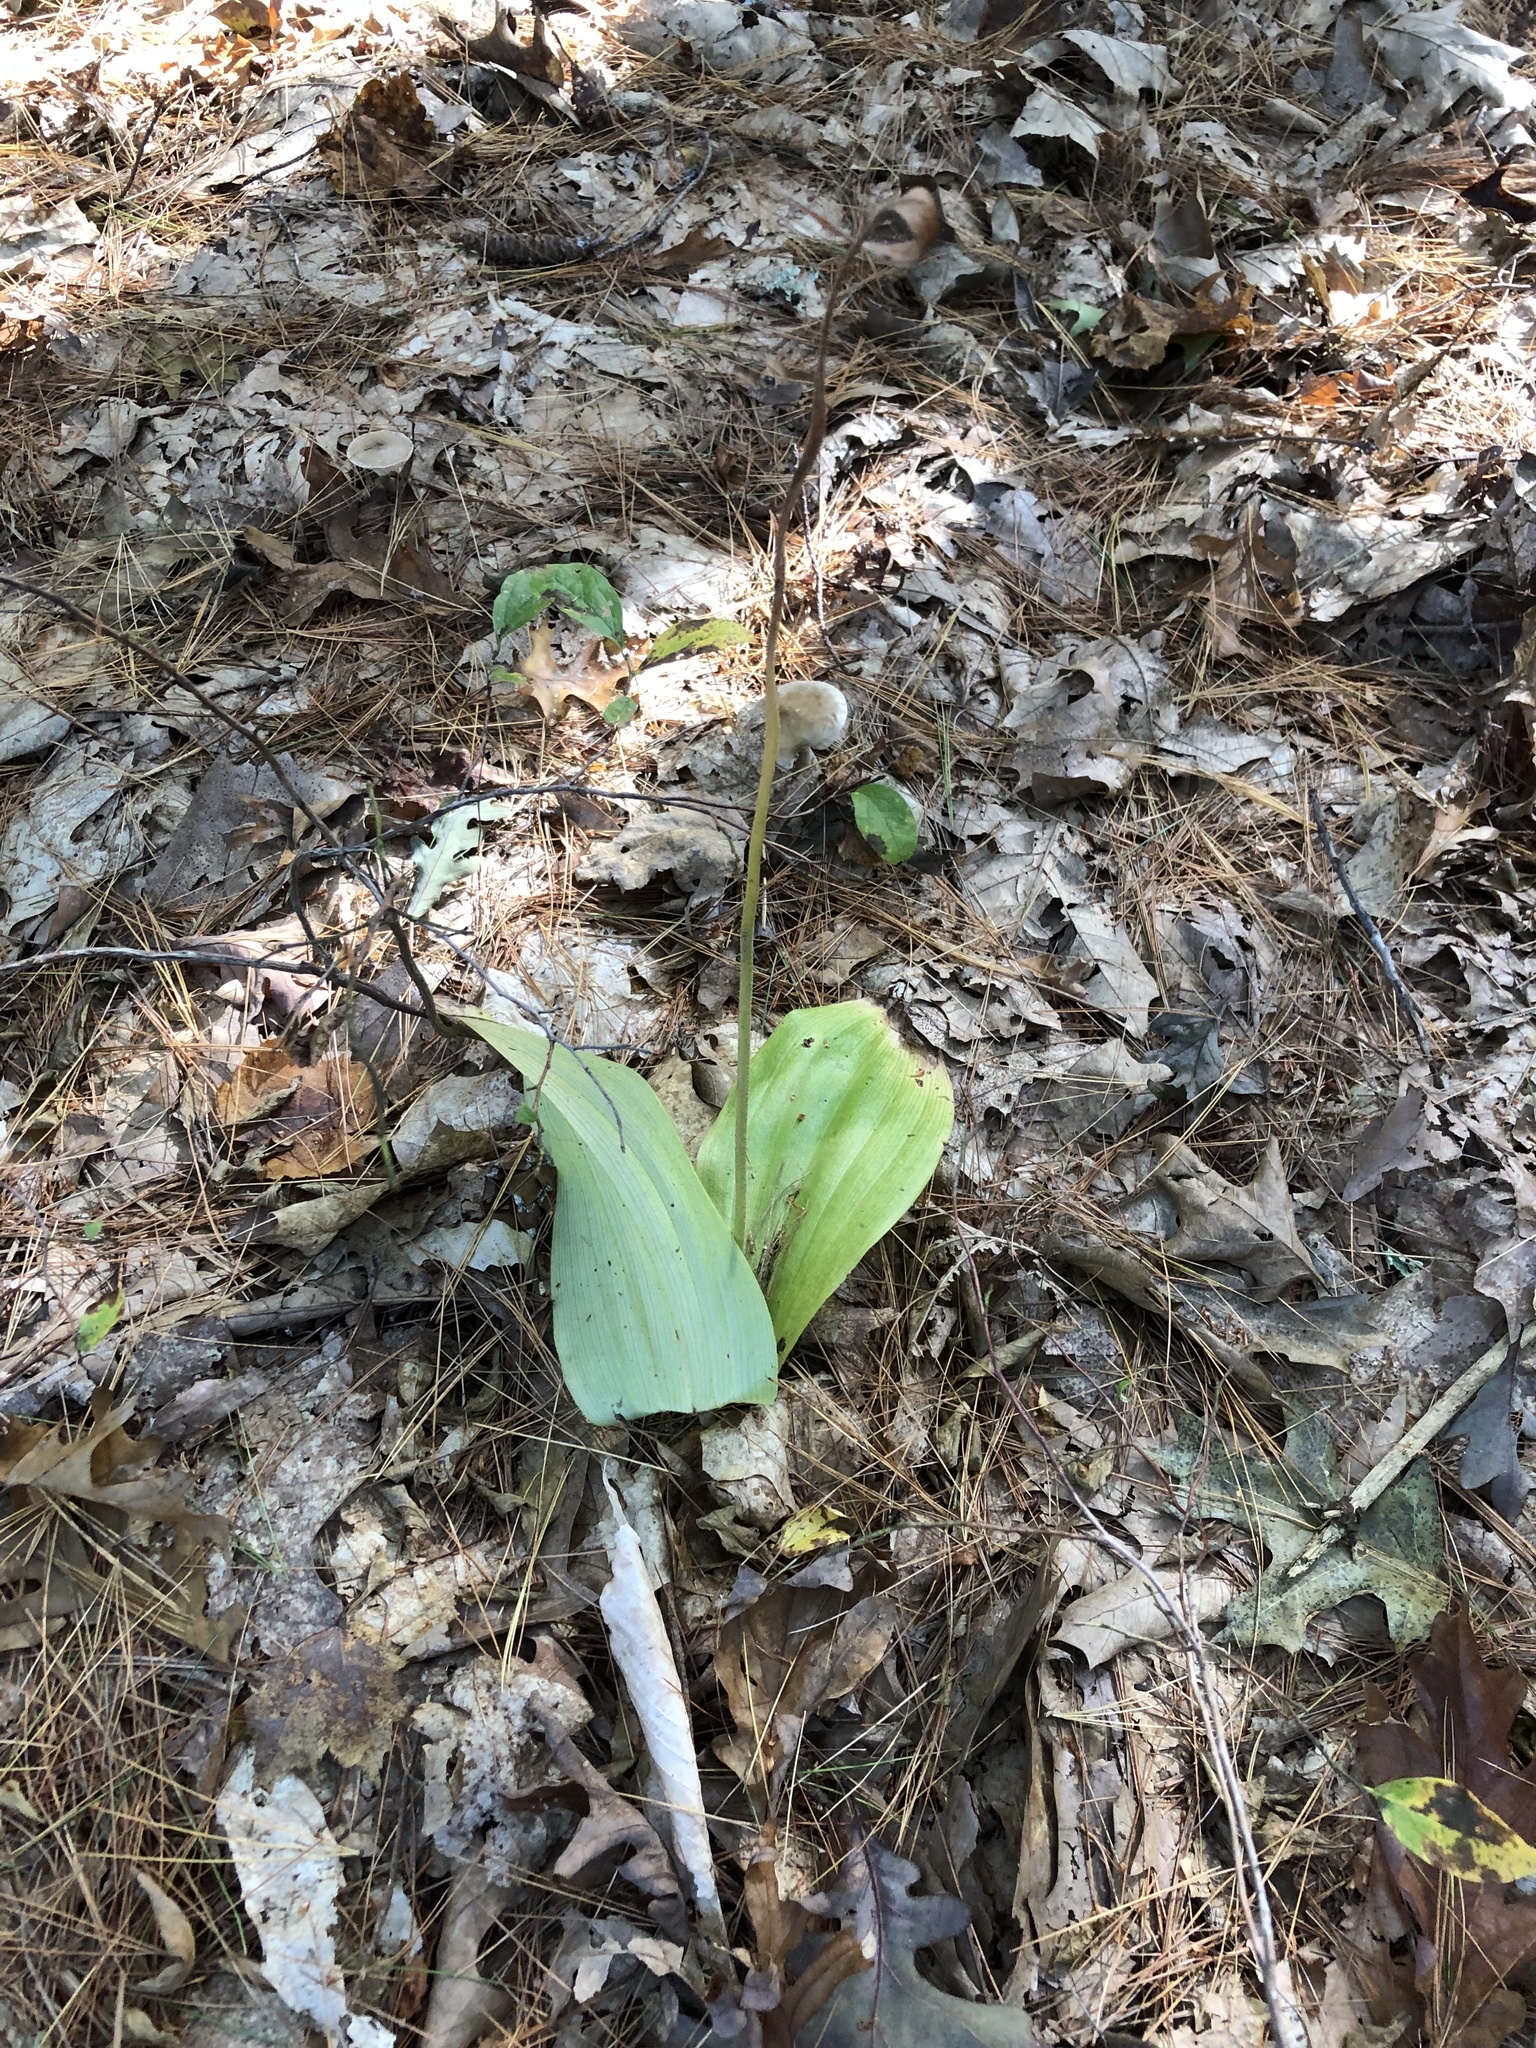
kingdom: Plantae
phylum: Tracheophyta
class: Liliopsida
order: Asparagales
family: Orchidaceae
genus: Cypripedium
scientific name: Cypripedium acaule
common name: Pink lady's-slipper
